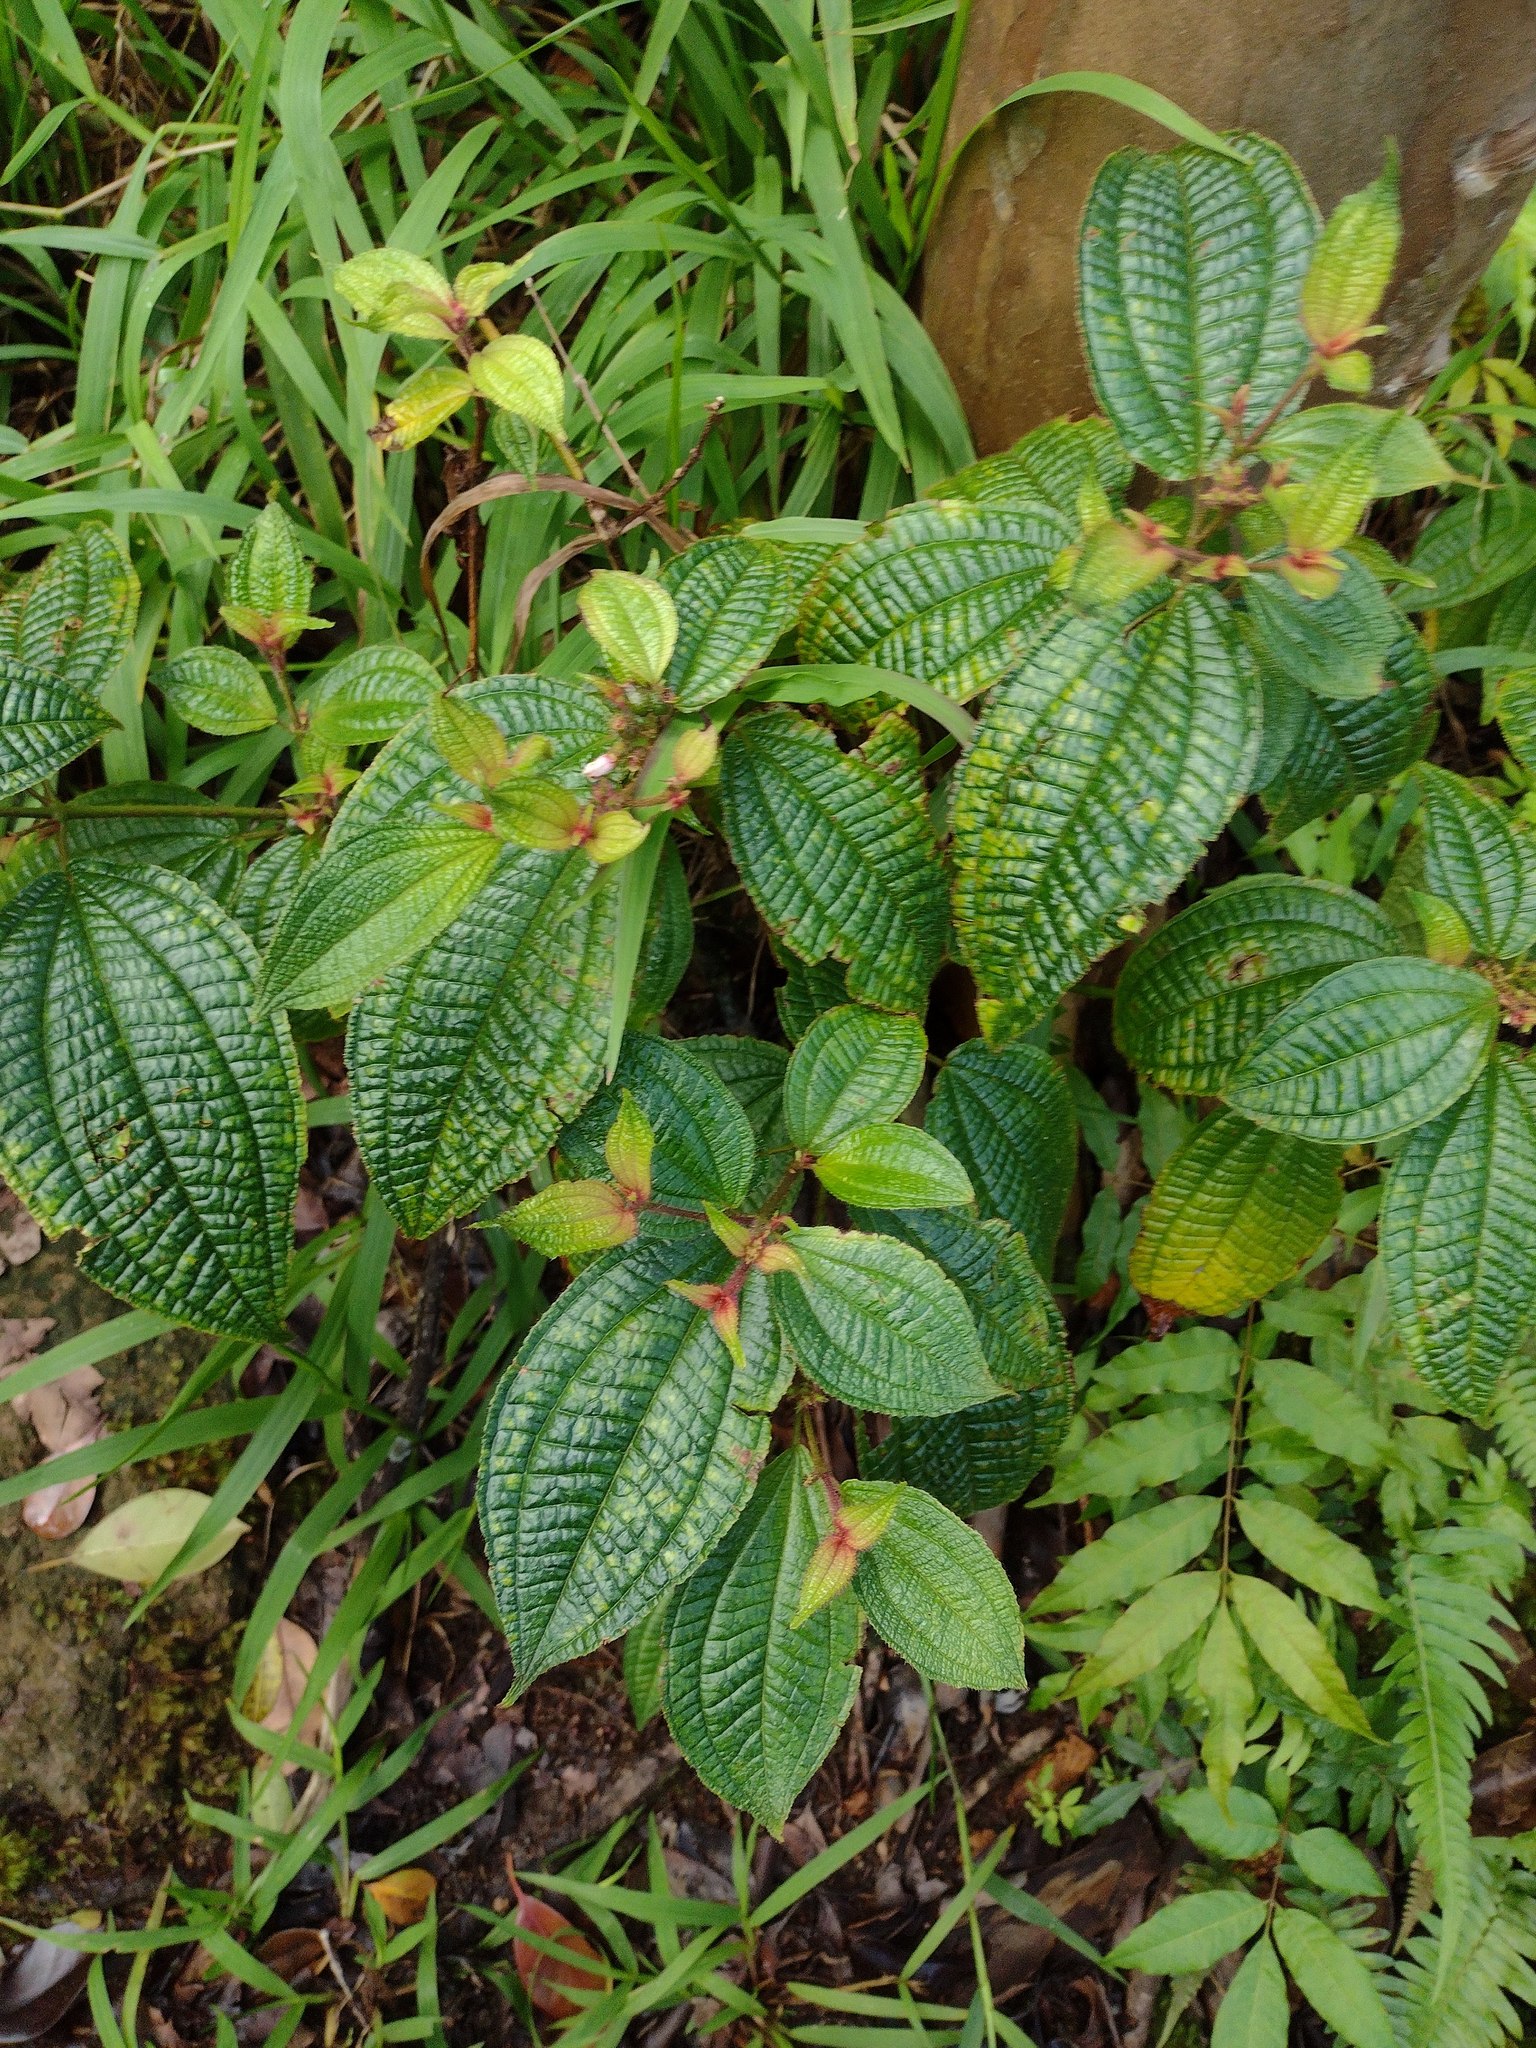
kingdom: Plantae
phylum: Tracheophyta
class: Magnoliopsida
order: Myrtales
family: Melastomataceae
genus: Miconia
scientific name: Miconia crenata
